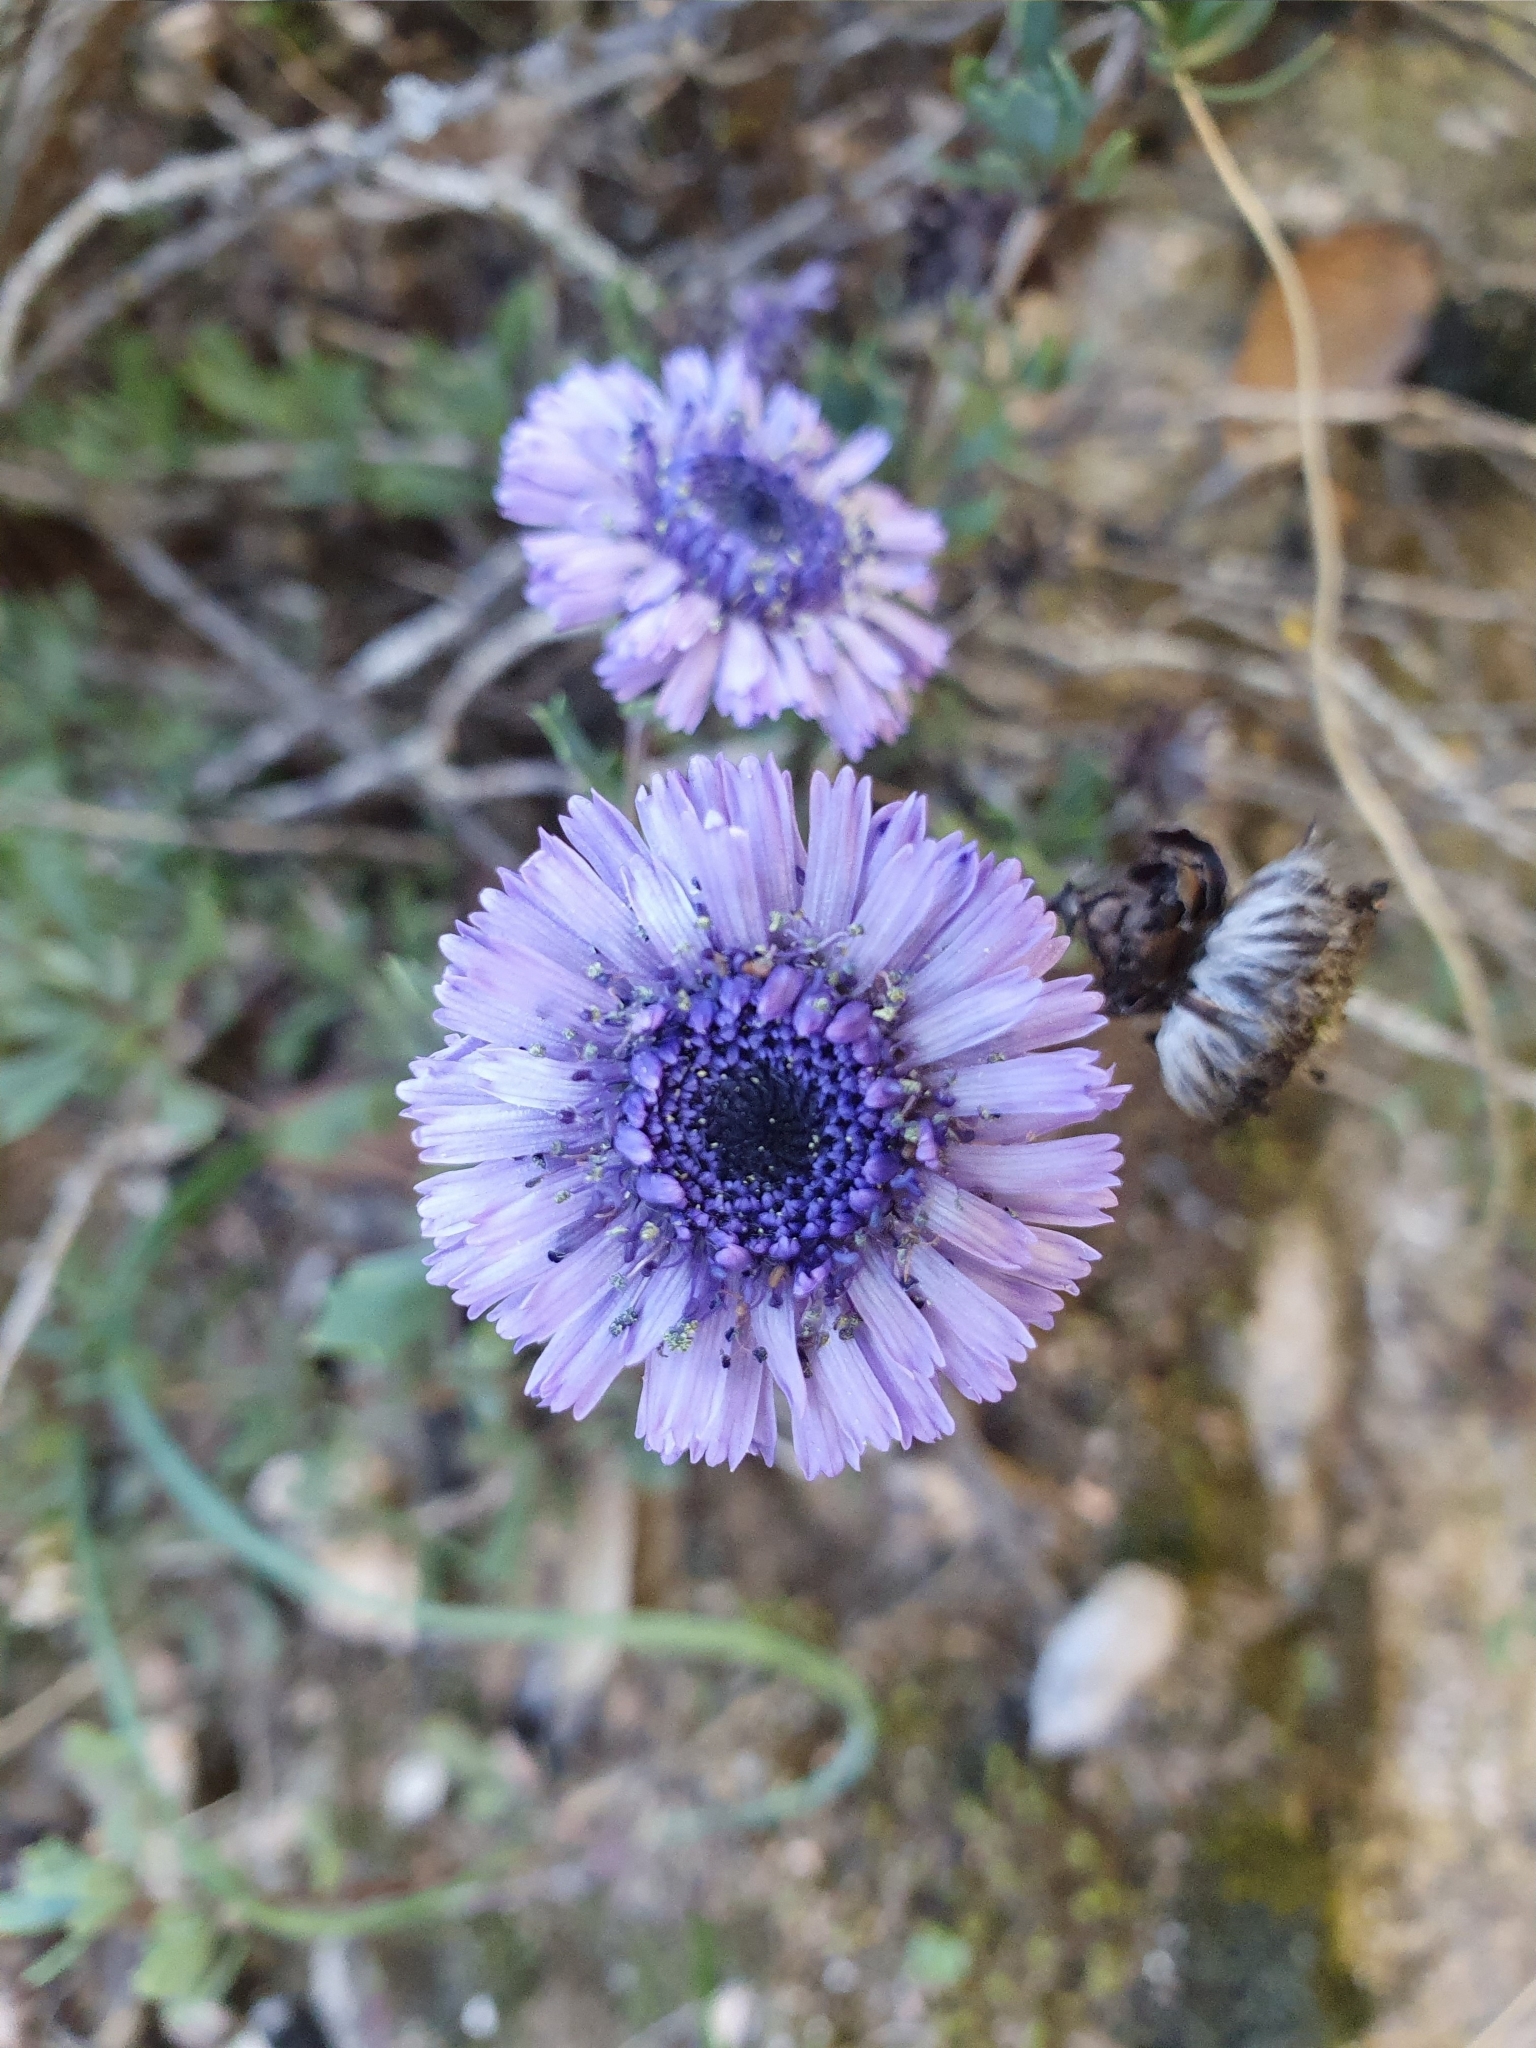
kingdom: Plantae
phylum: Tracheophyta
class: Magnoliopsida
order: Lamiales
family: Plantaginaceae
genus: Globularia
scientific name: Globularia alypum
